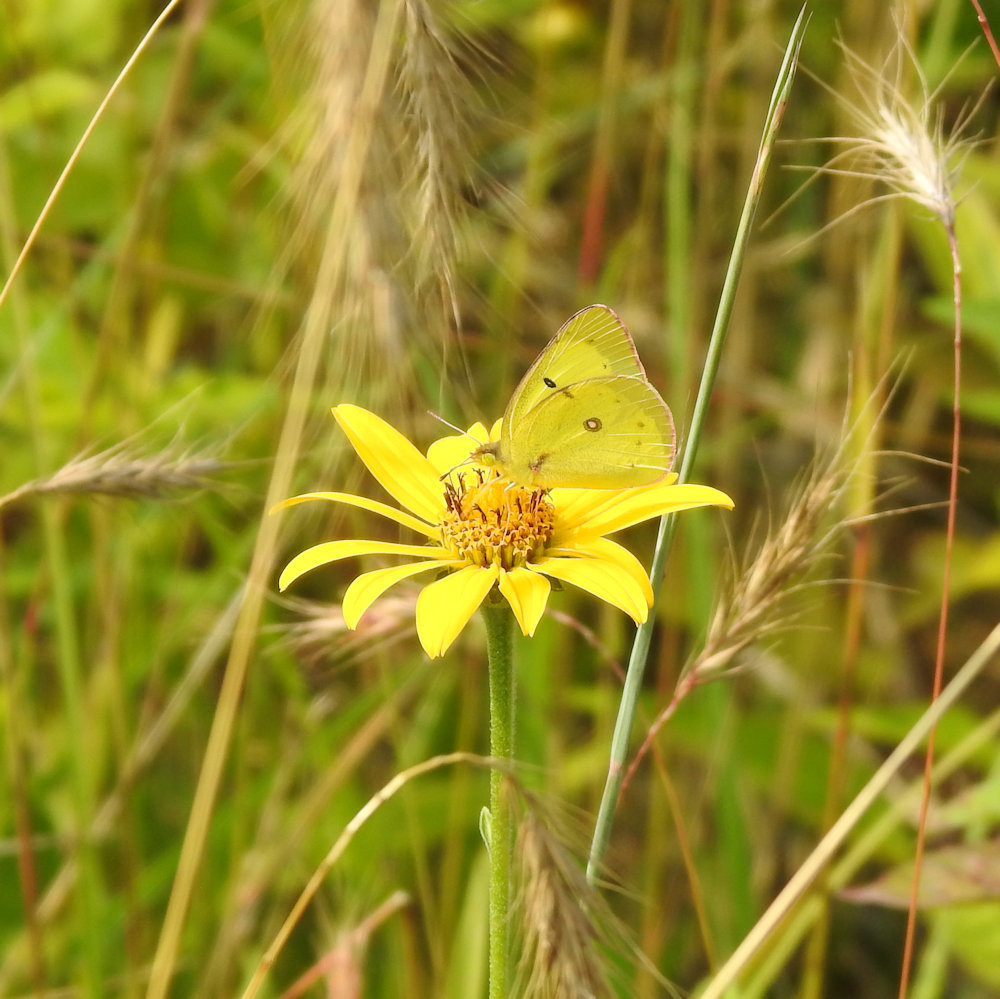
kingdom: Animalia
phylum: Arthropoda
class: Insecta
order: Lepidoptera
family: Pieridae
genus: Colias
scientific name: Colias philodice
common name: Clouded sulphur
